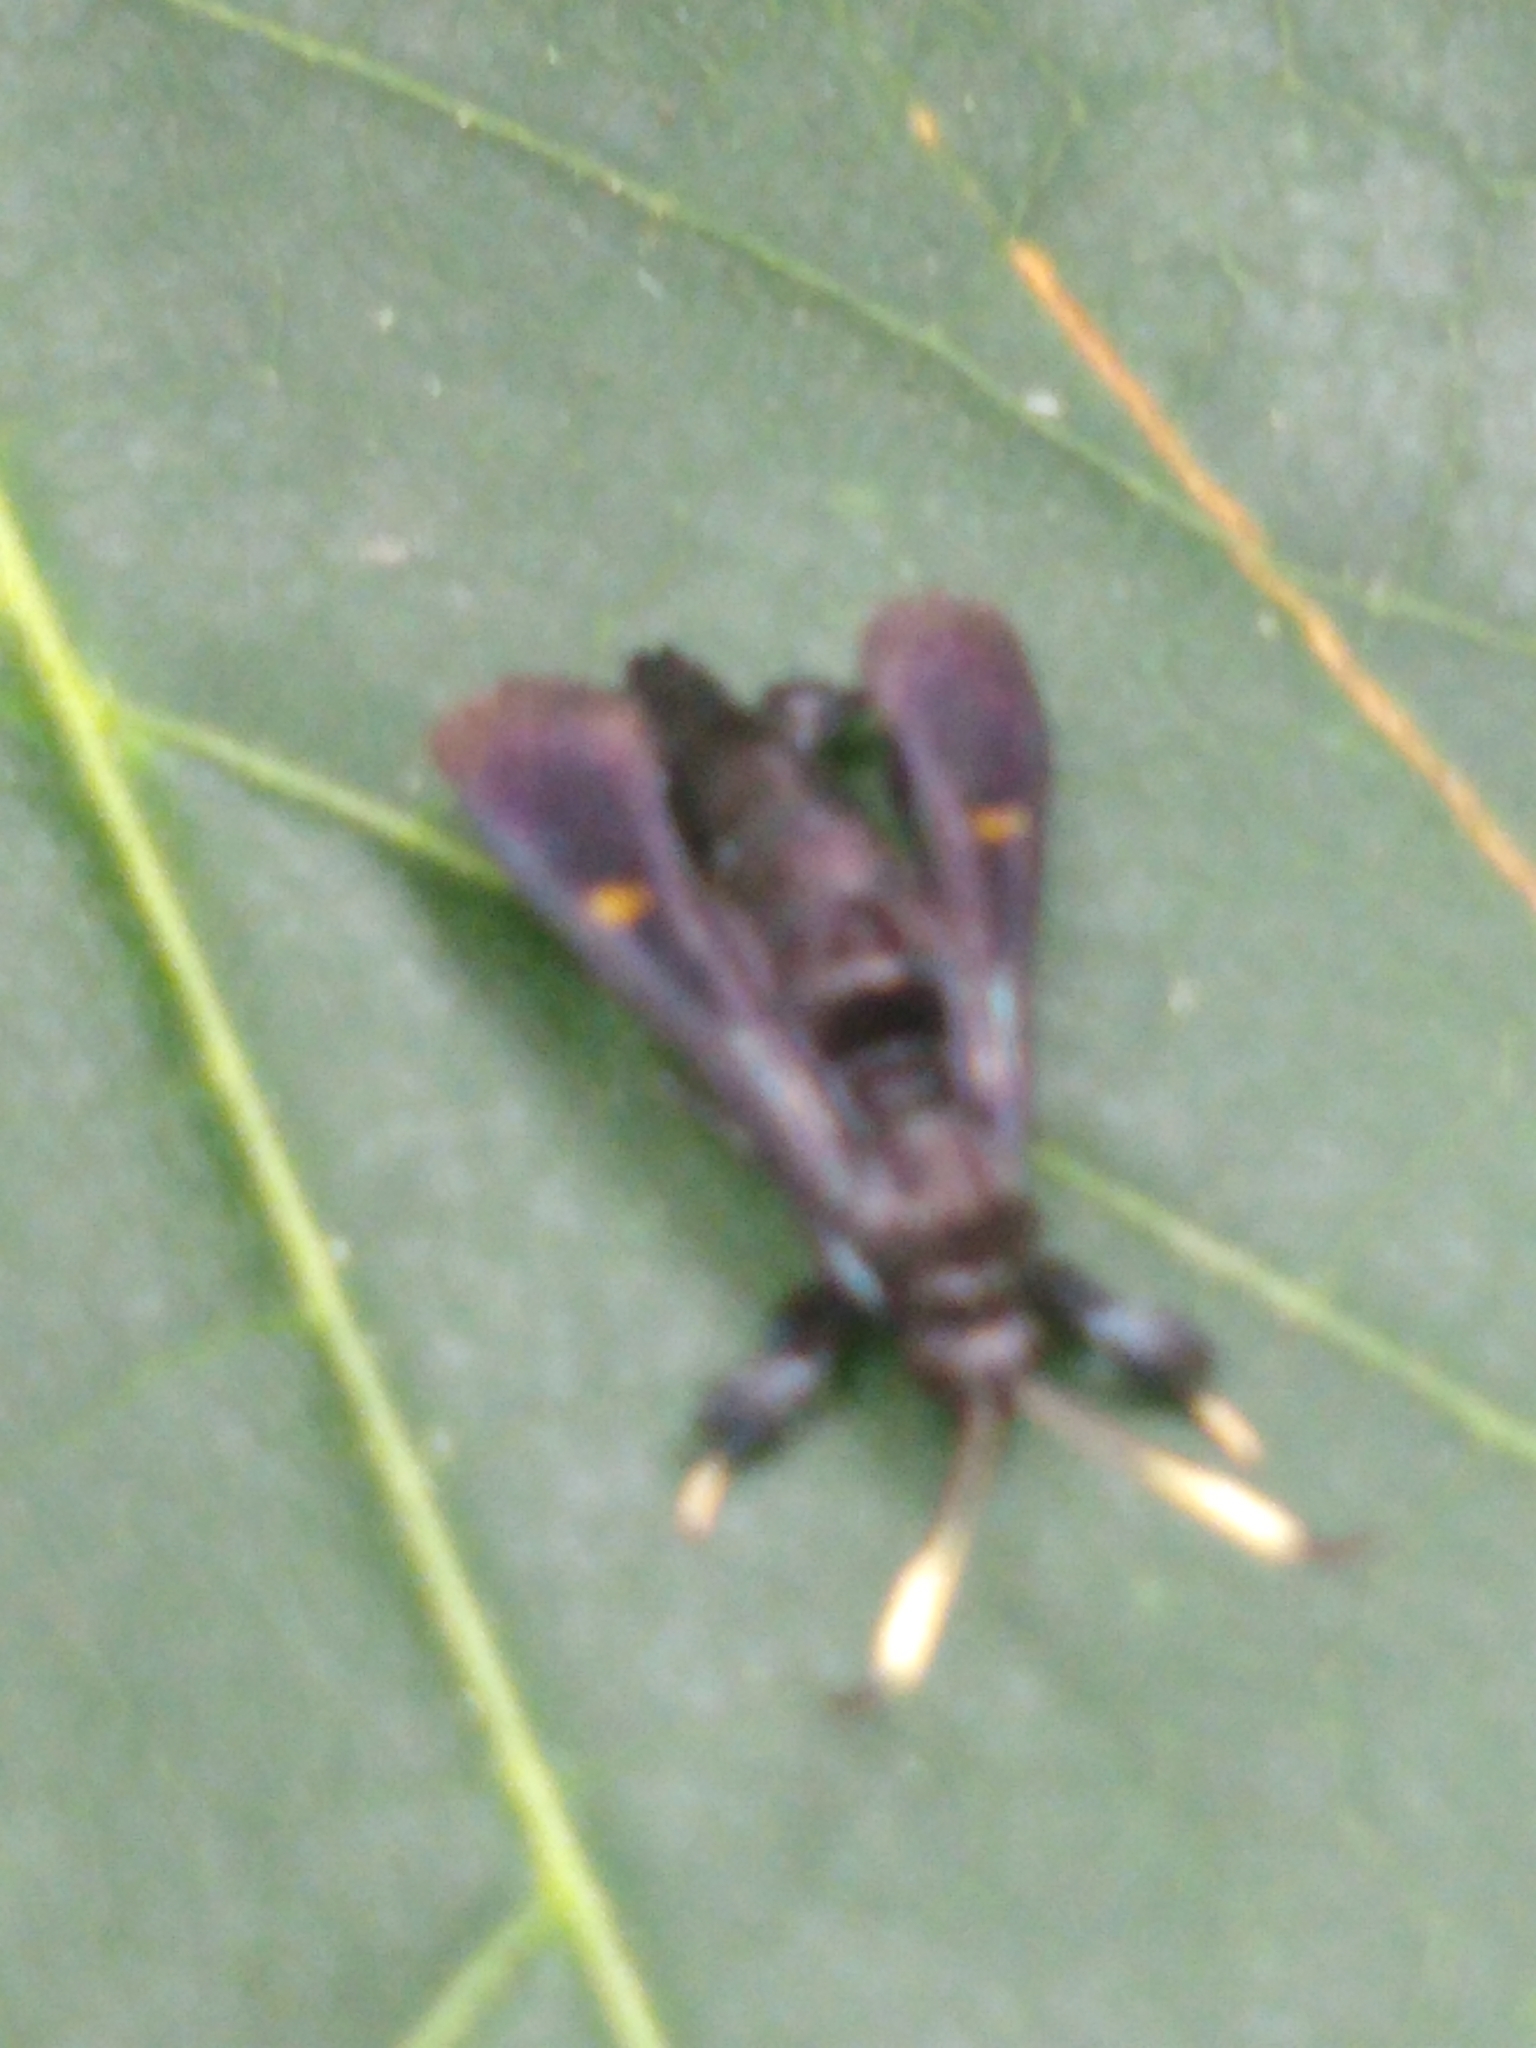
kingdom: Animalia
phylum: Arthropoda
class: Insecta
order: Lepidoptera
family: Sesiidae
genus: Albuna
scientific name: Albuna fraxini
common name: Virginia creeper clearwing
